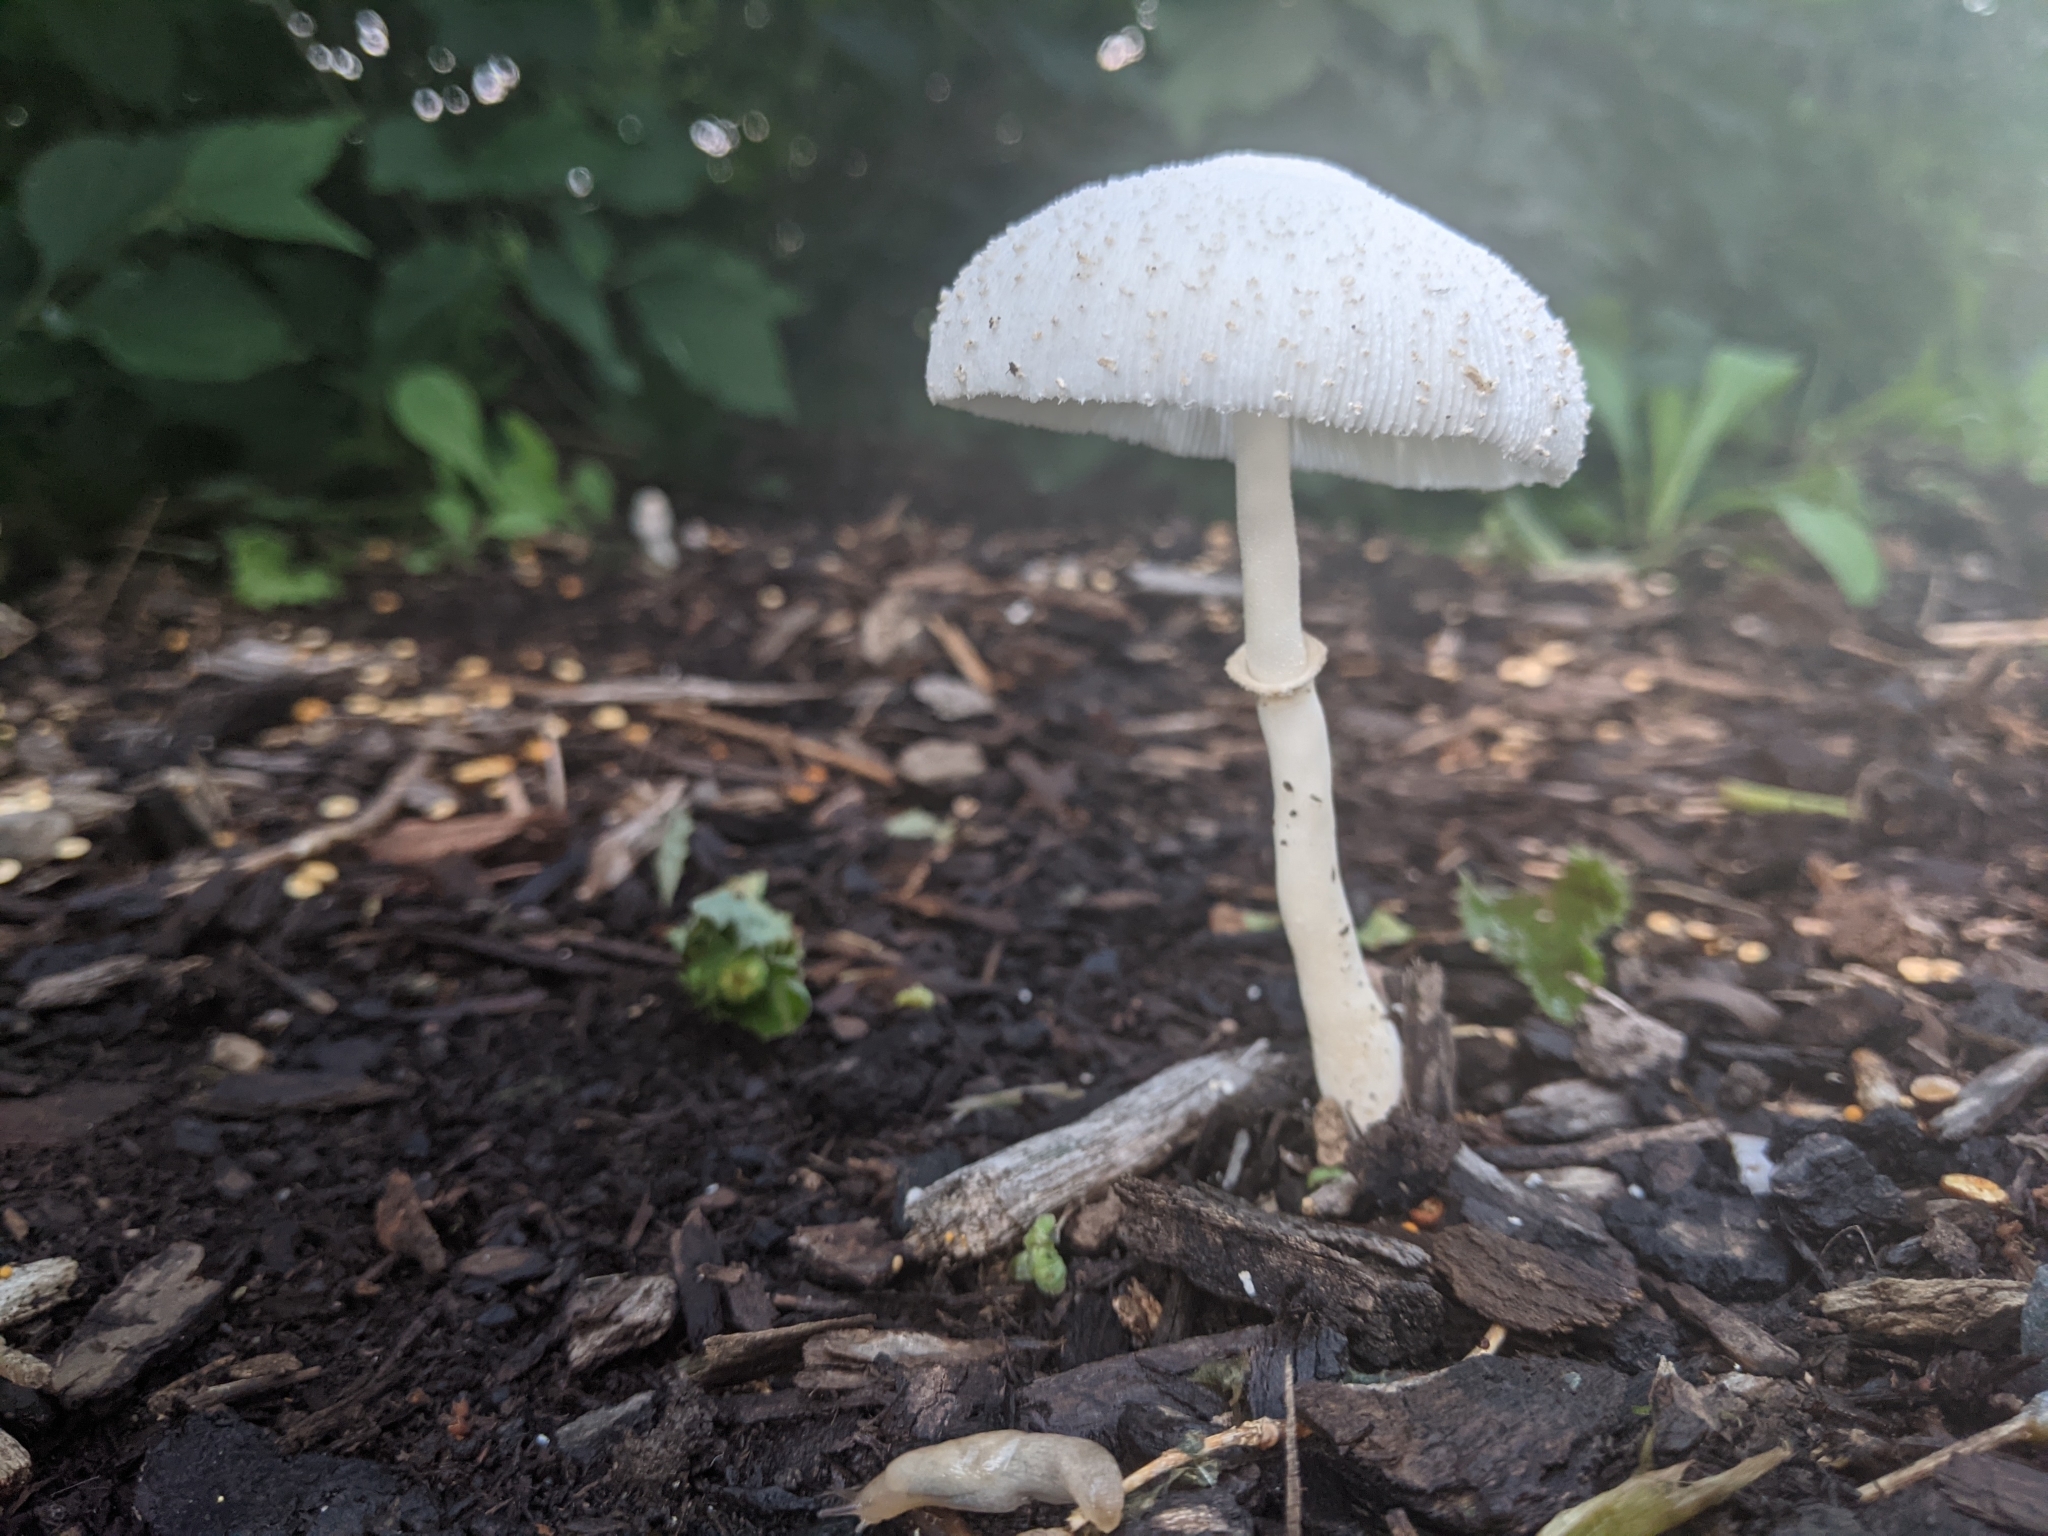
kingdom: Fungi
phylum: Basidiomycota
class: Agaricomycetes
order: Agaricales
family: Agaricaceae
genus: Leucocoprinus
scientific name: Leucocoprinus cepistipes
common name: Onion-stalk parasol
